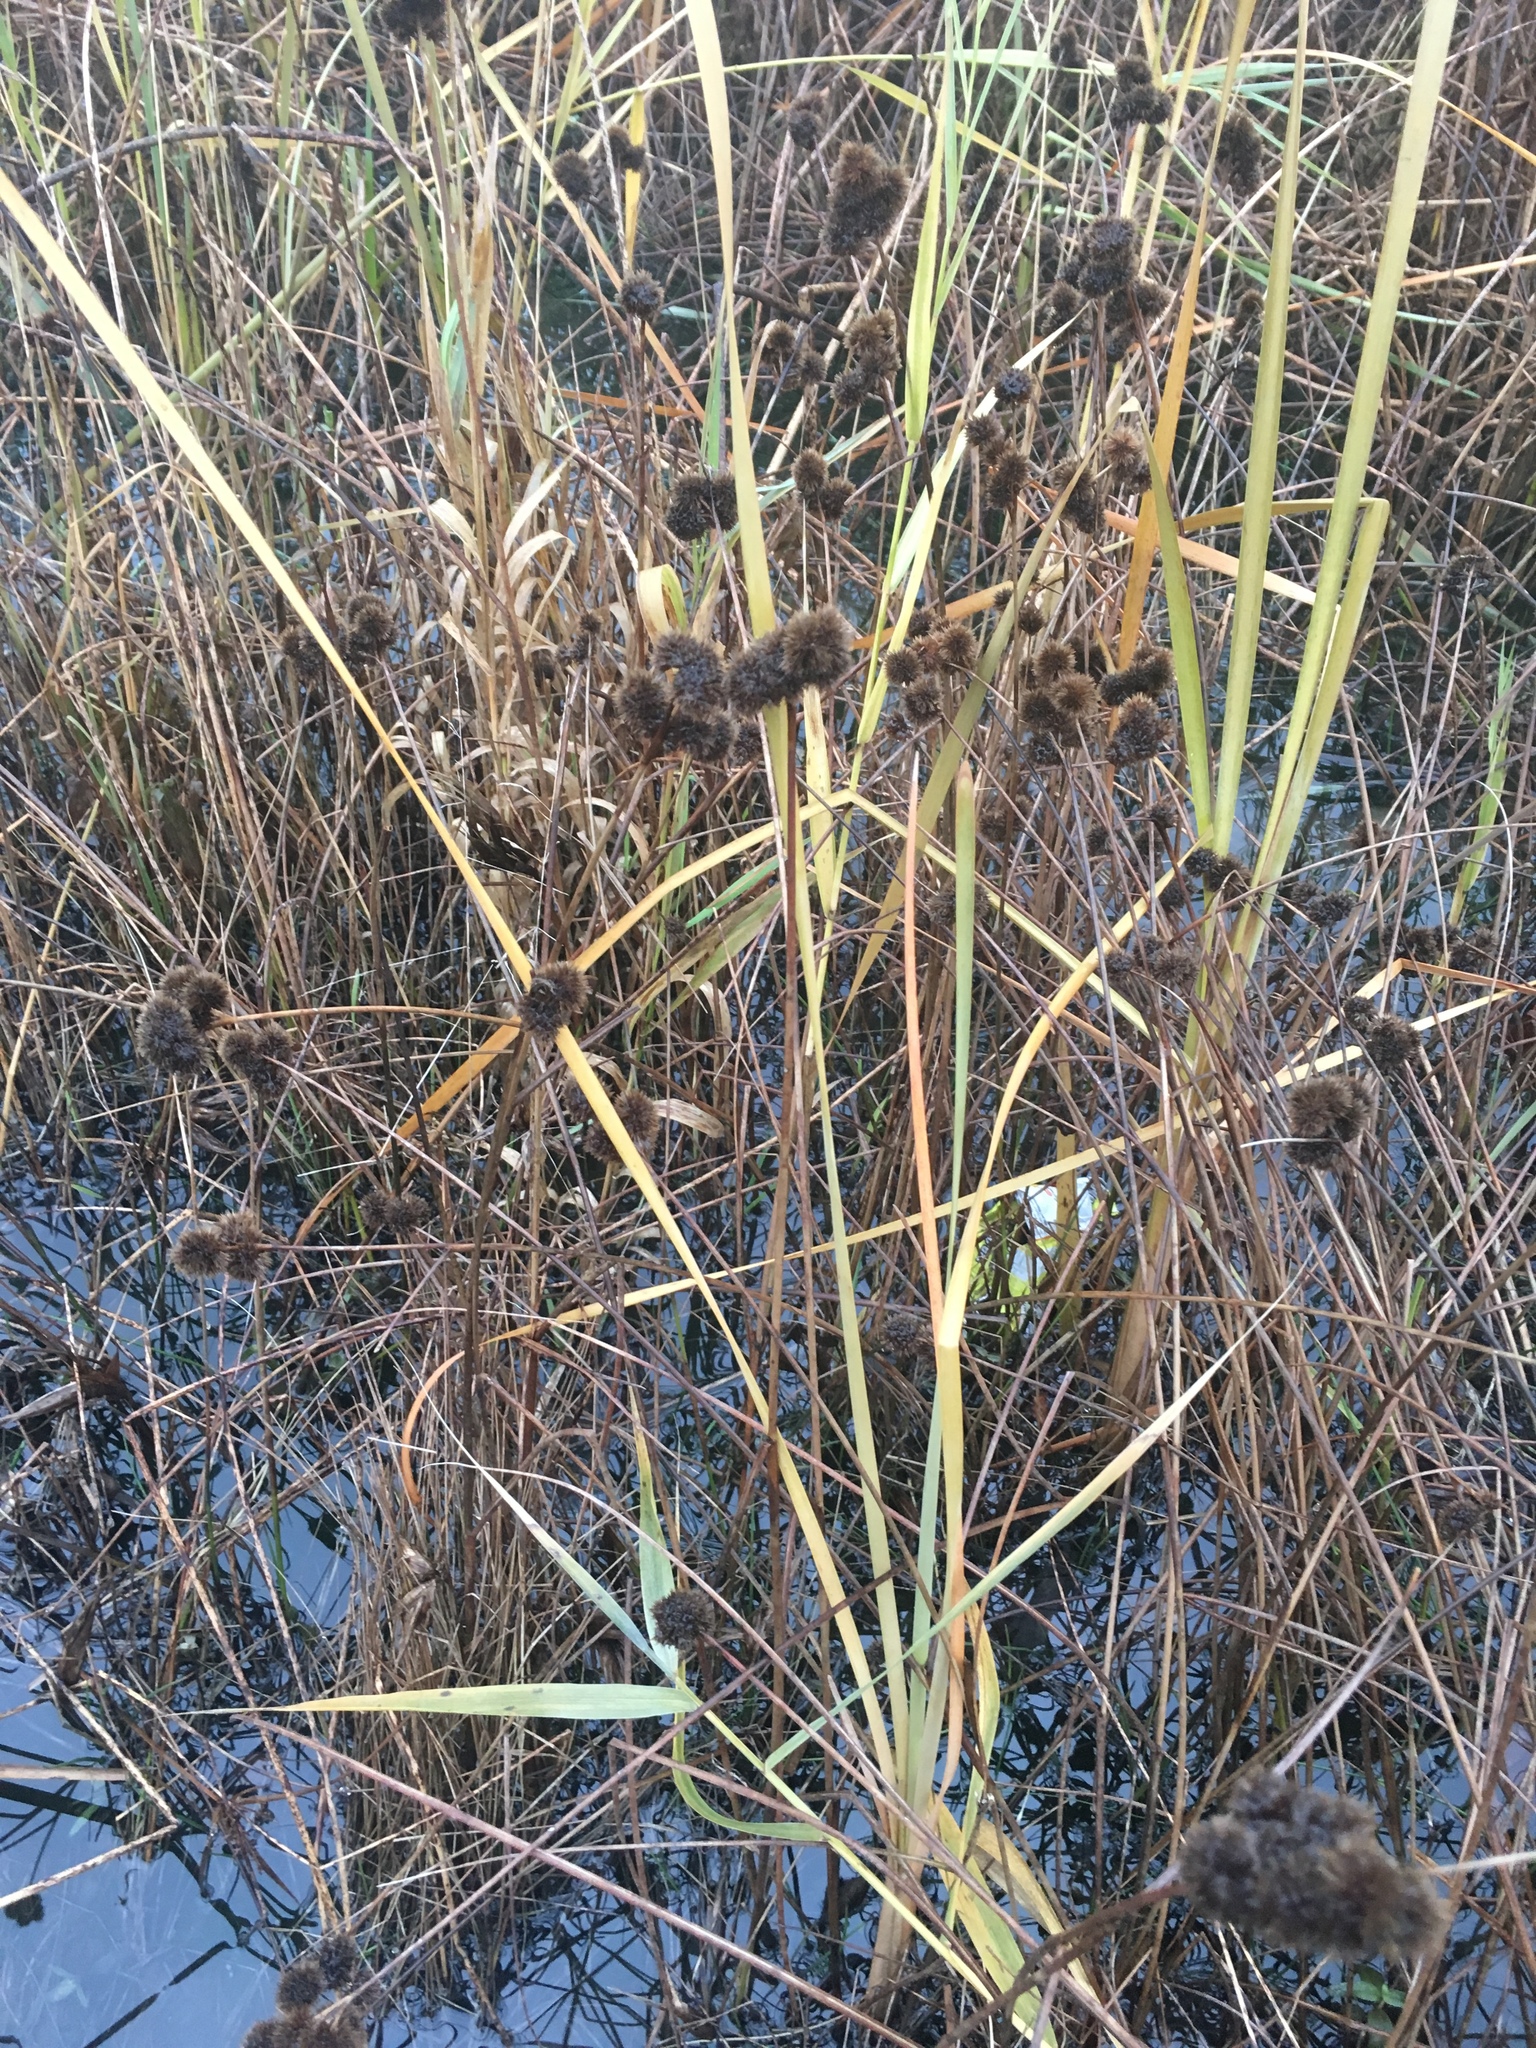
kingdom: Plantae
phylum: Tracheophyta
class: Liliopsida
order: Poales
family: Juncaceae
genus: Juncus
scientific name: Juncus torreyi
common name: Torrey's rush
